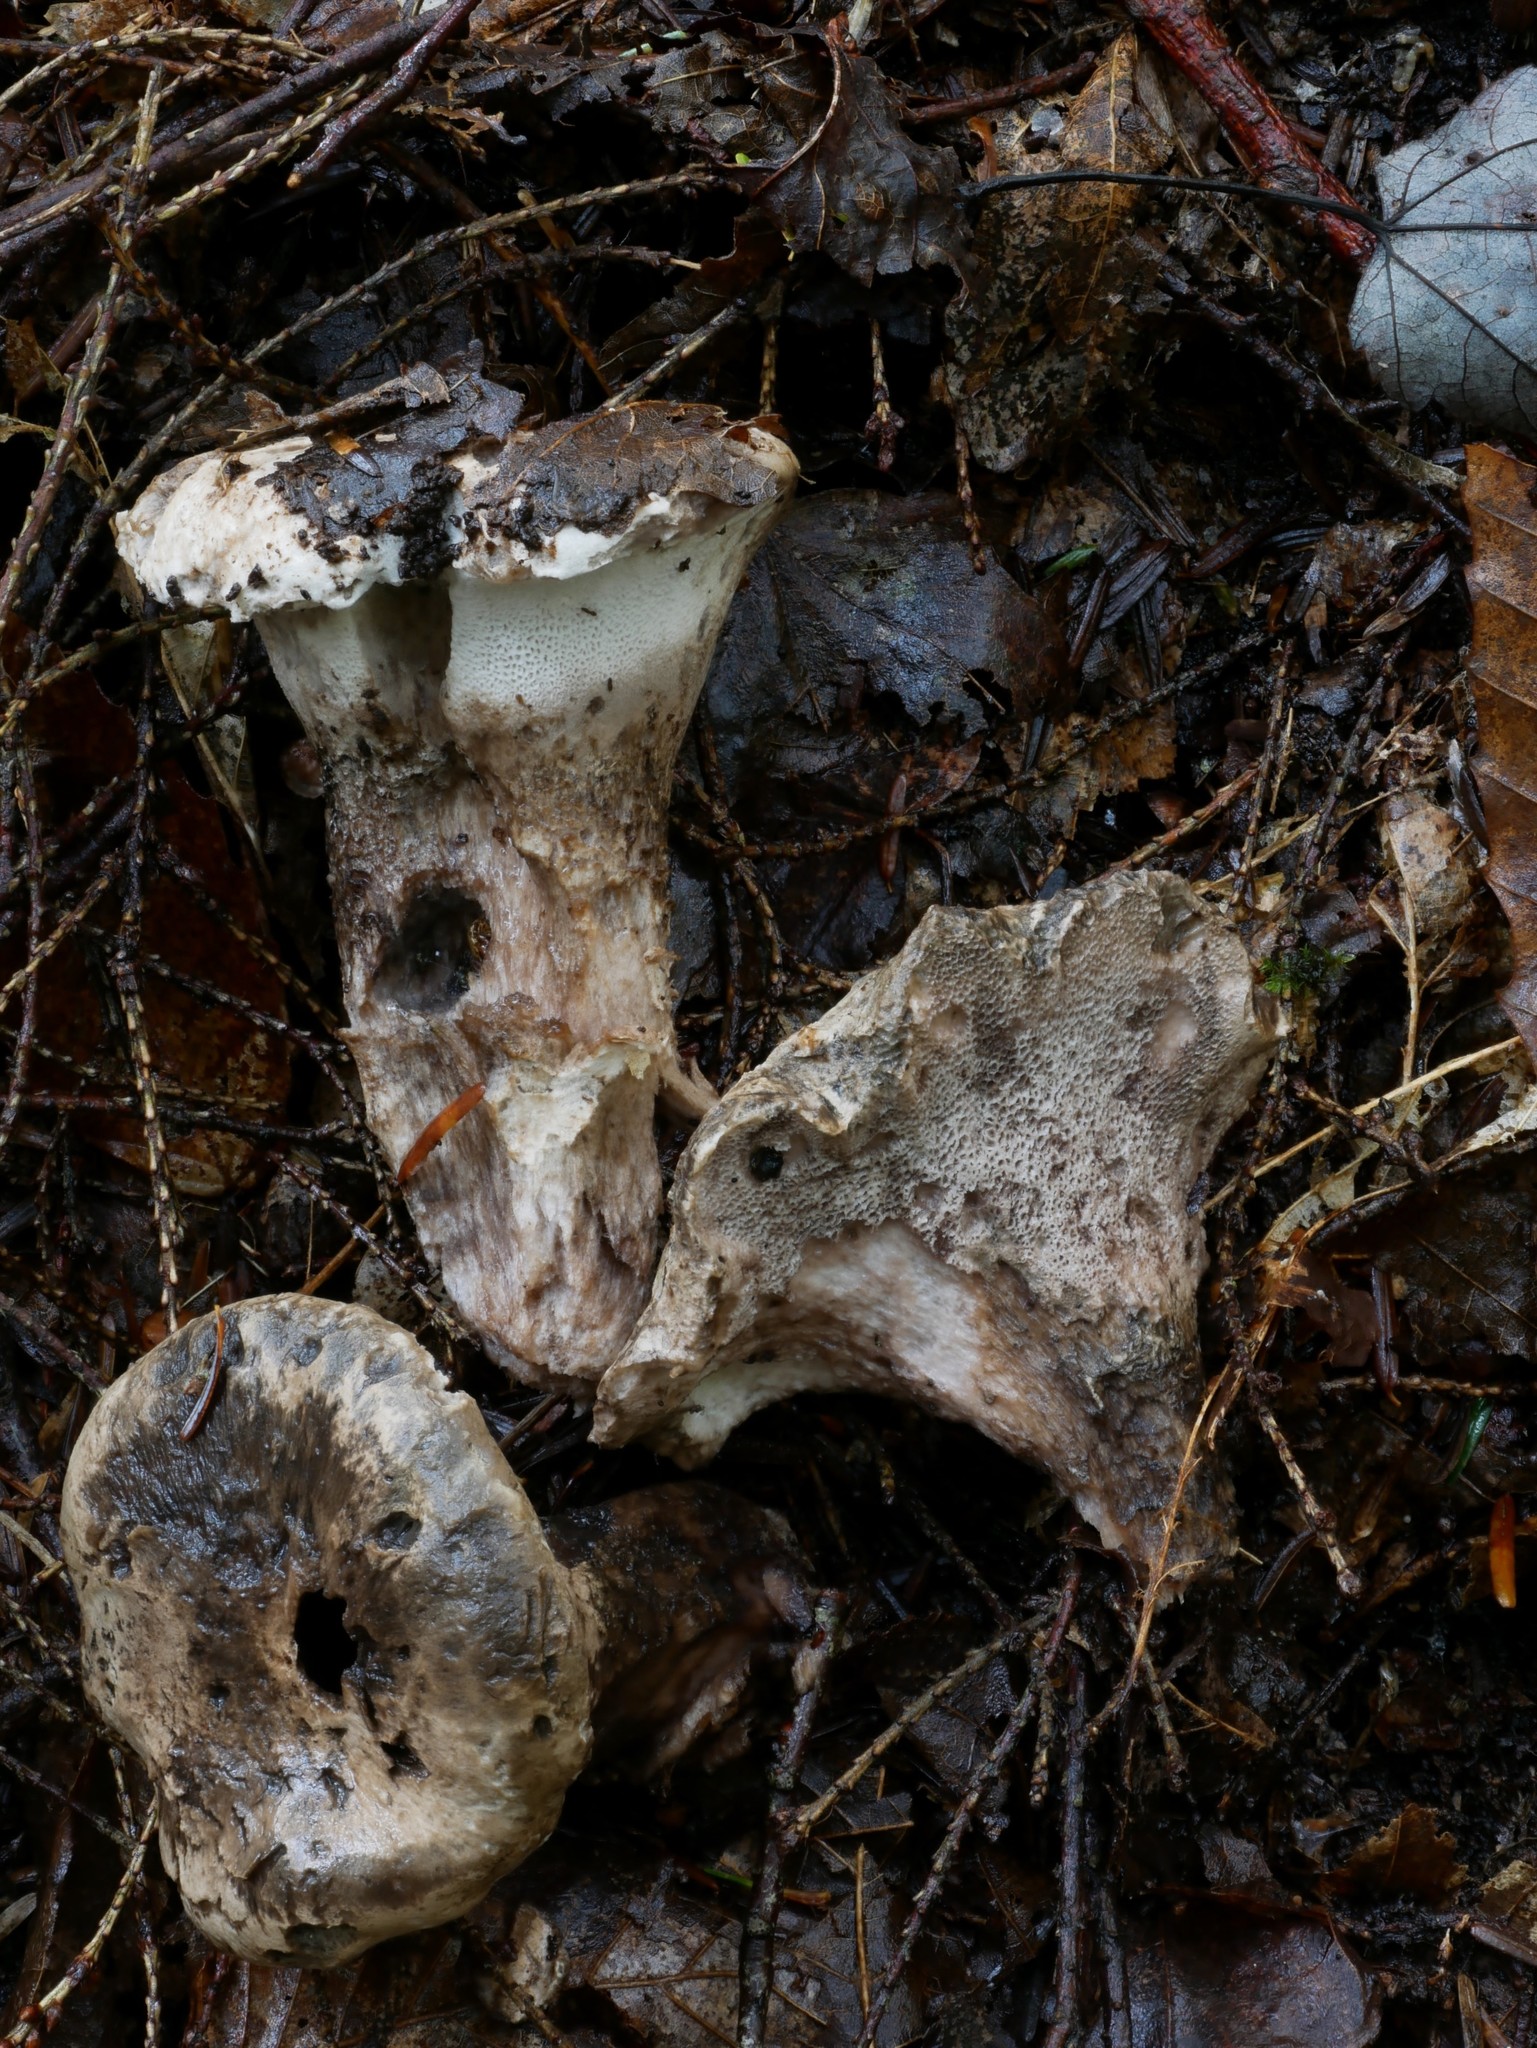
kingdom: Fungi
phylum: Basidiomycota
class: Agaricomycetes
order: Thelephorales
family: Bankeraceae
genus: Boletopsis
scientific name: Boletopsis grisea
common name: Grey falsebolete
